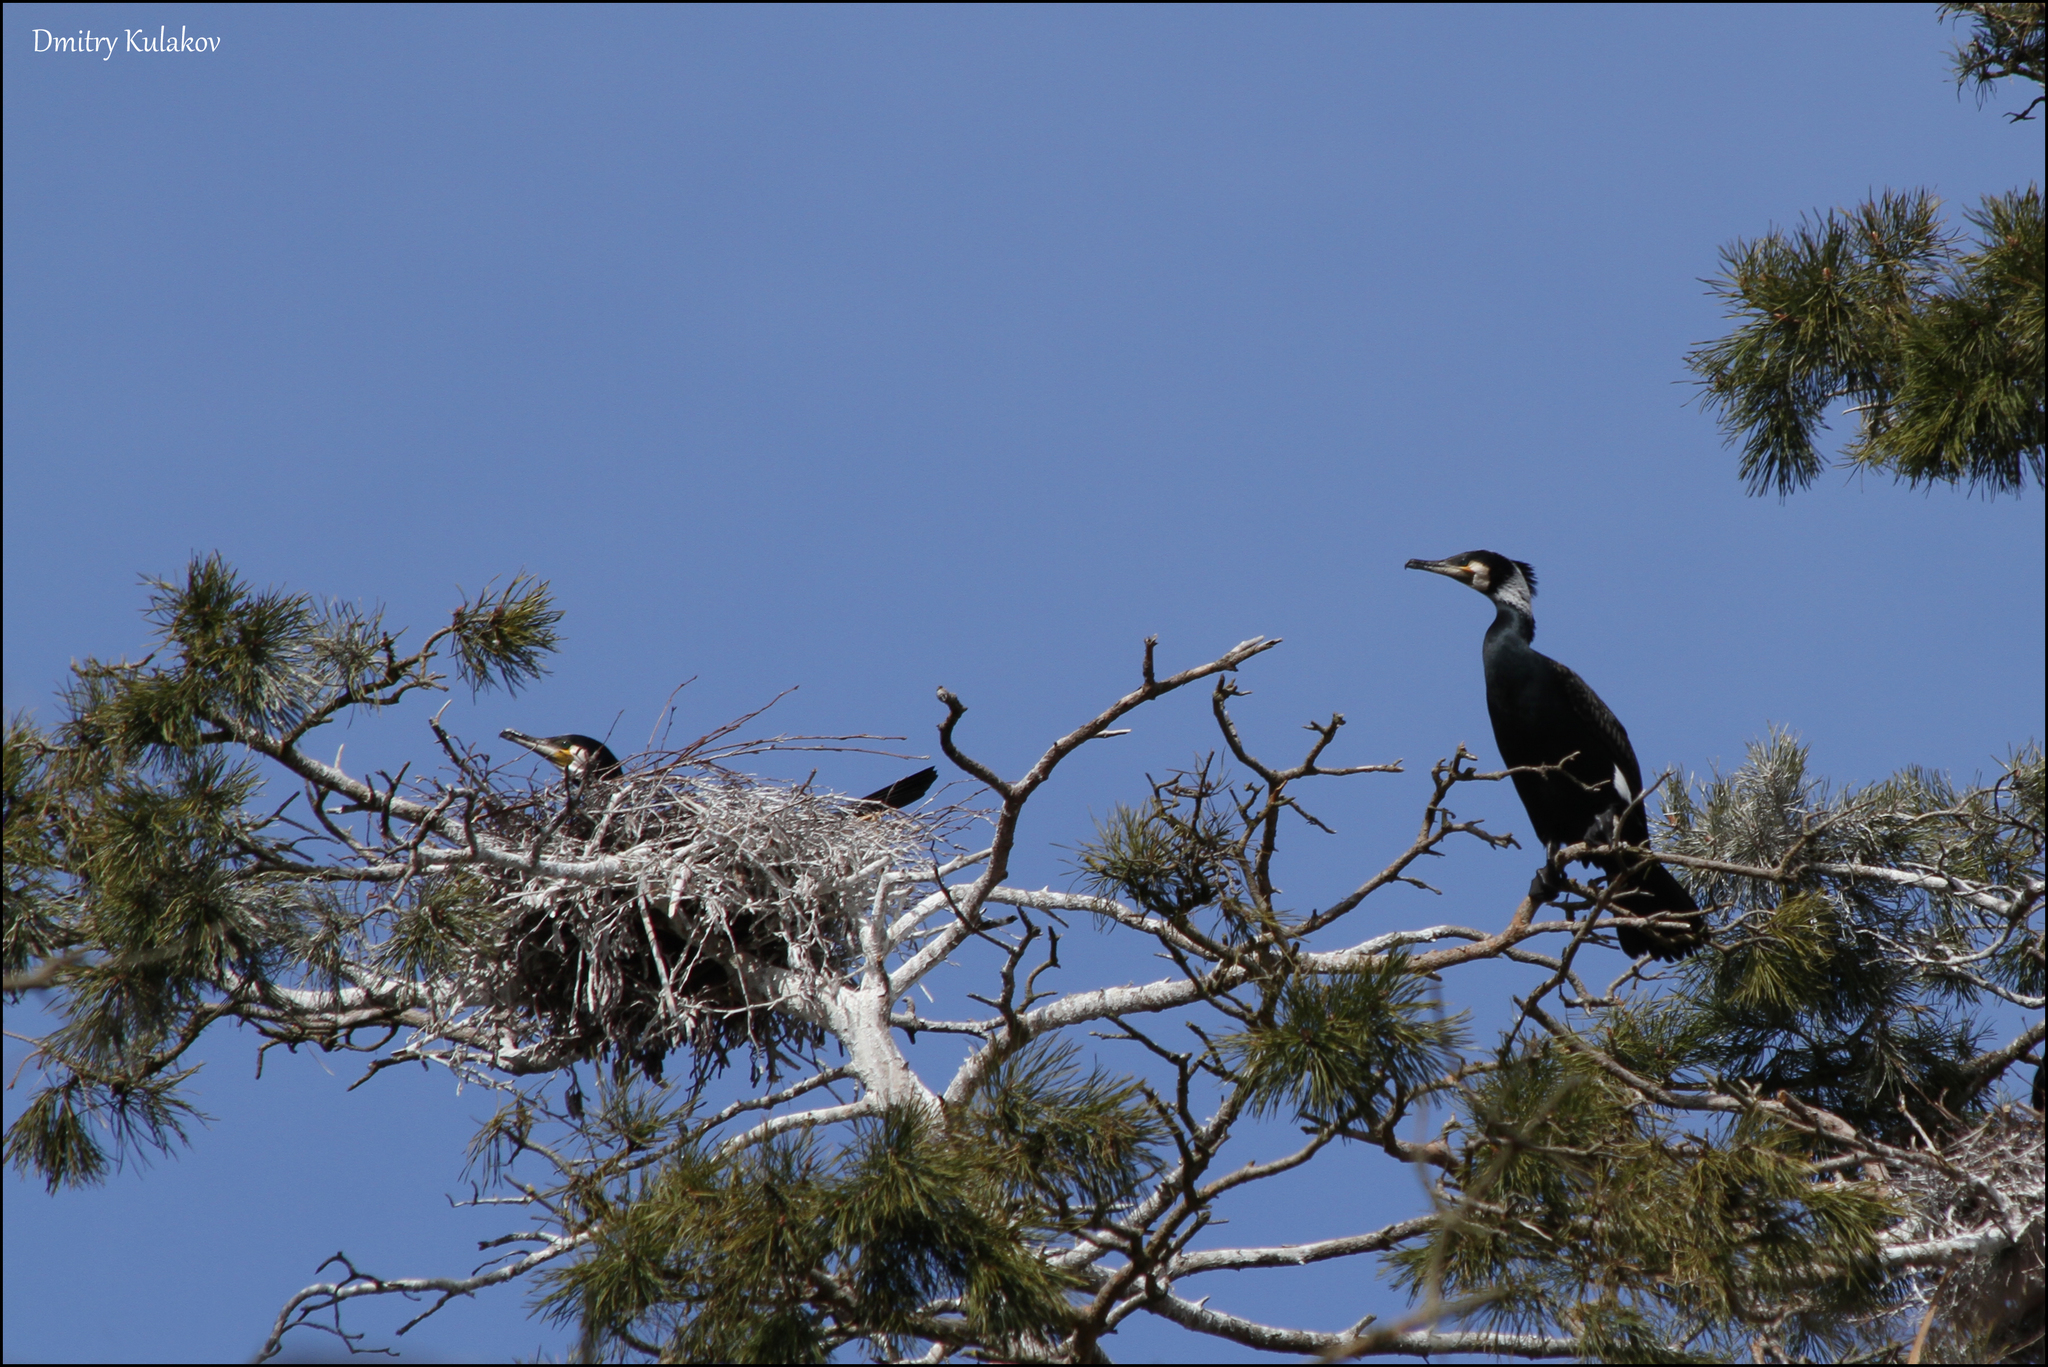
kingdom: Animalia
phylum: Chordata
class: Aves
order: Suliformes
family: Phalacrocoracidae
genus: Phalacrocorax
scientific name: Phalacrocorax carbo
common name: Great cormorant
